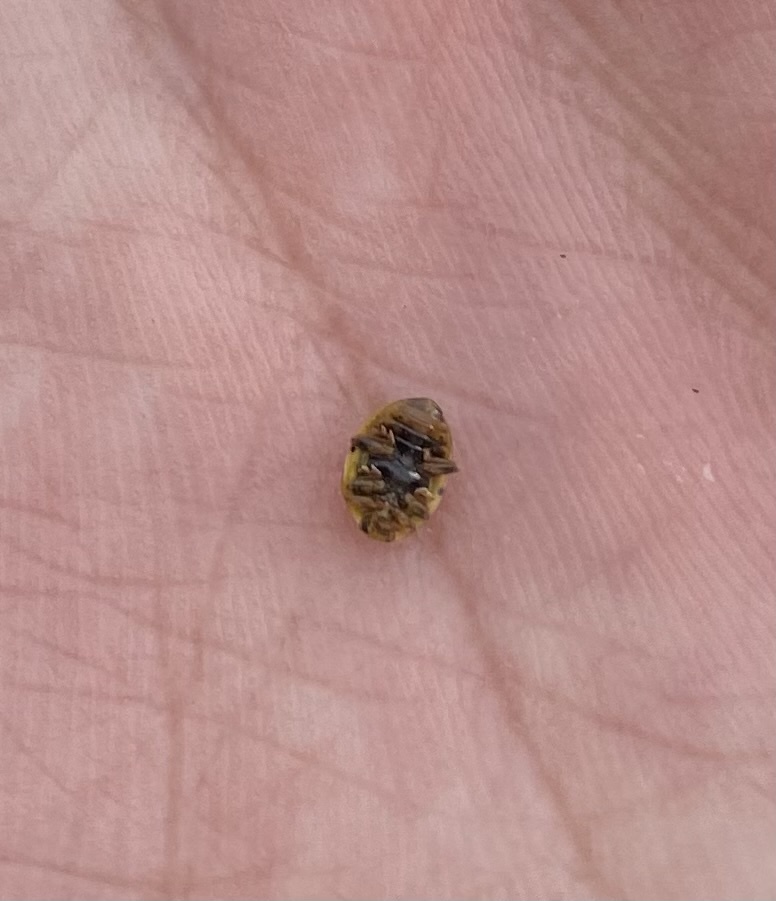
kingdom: Animalia
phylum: Arthropoda
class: Insecta
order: Coleoptera
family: Coccinellidae
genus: Psyllobora
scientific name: Psyllobora vigintiduopunctata
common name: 22-spot ladybird
